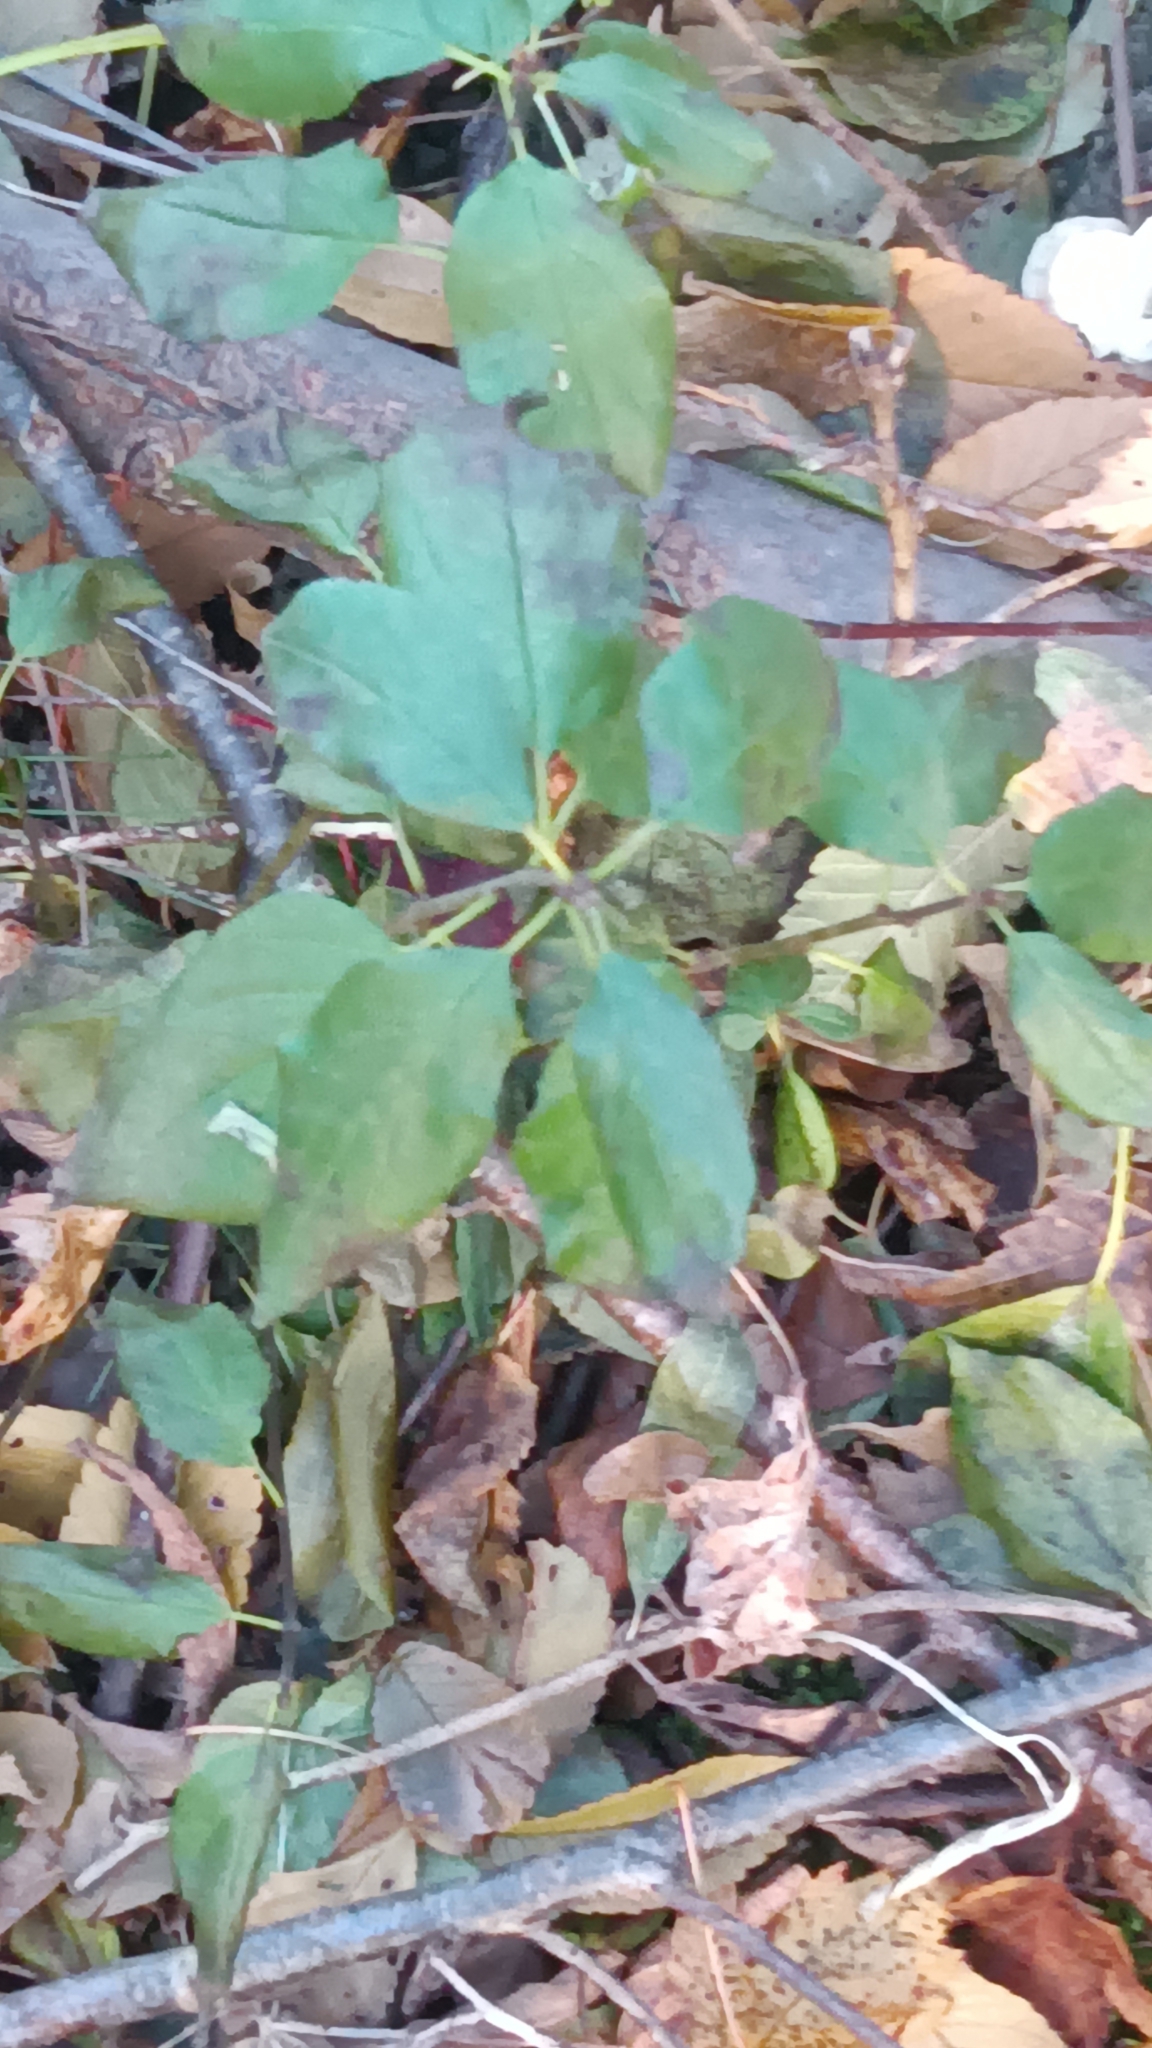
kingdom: Plantae
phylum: Tracheophyta
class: Magnoliopsida
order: Rosales
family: Rhamnaceae
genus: Rhamnus
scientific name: Rhamnus cathartica
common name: Common buckthorn
